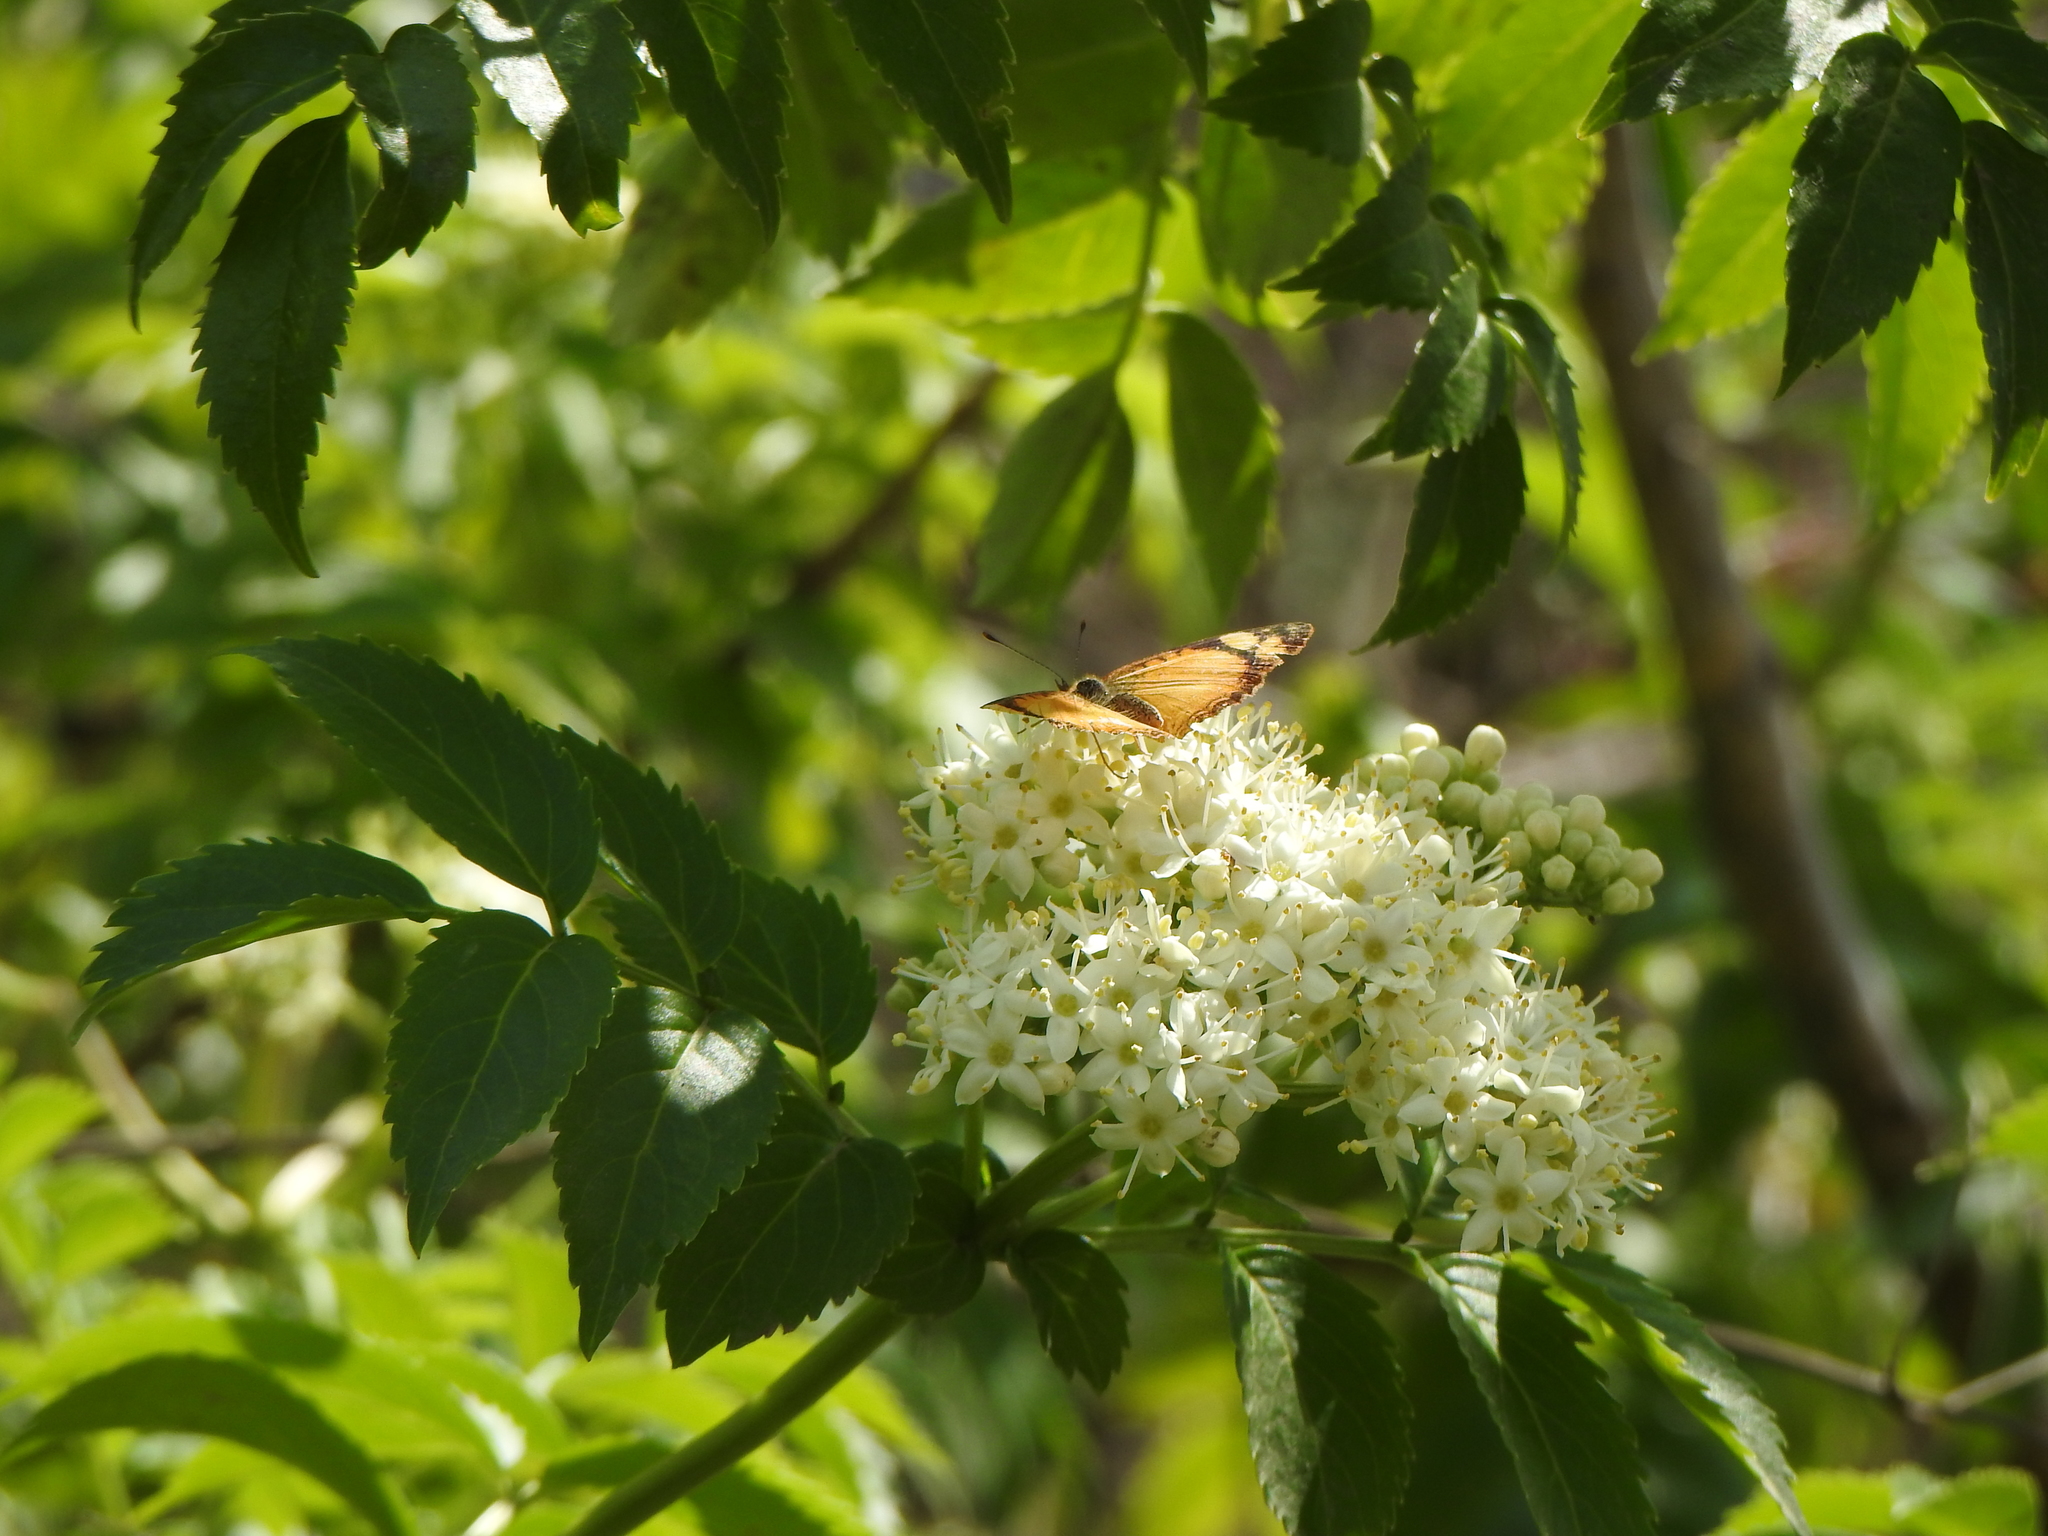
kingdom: Animalia
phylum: Arthropoda
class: Insecta
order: Lepidoptera
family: Nymphalidae
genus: Tegosa
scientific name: Tegosa claudina
